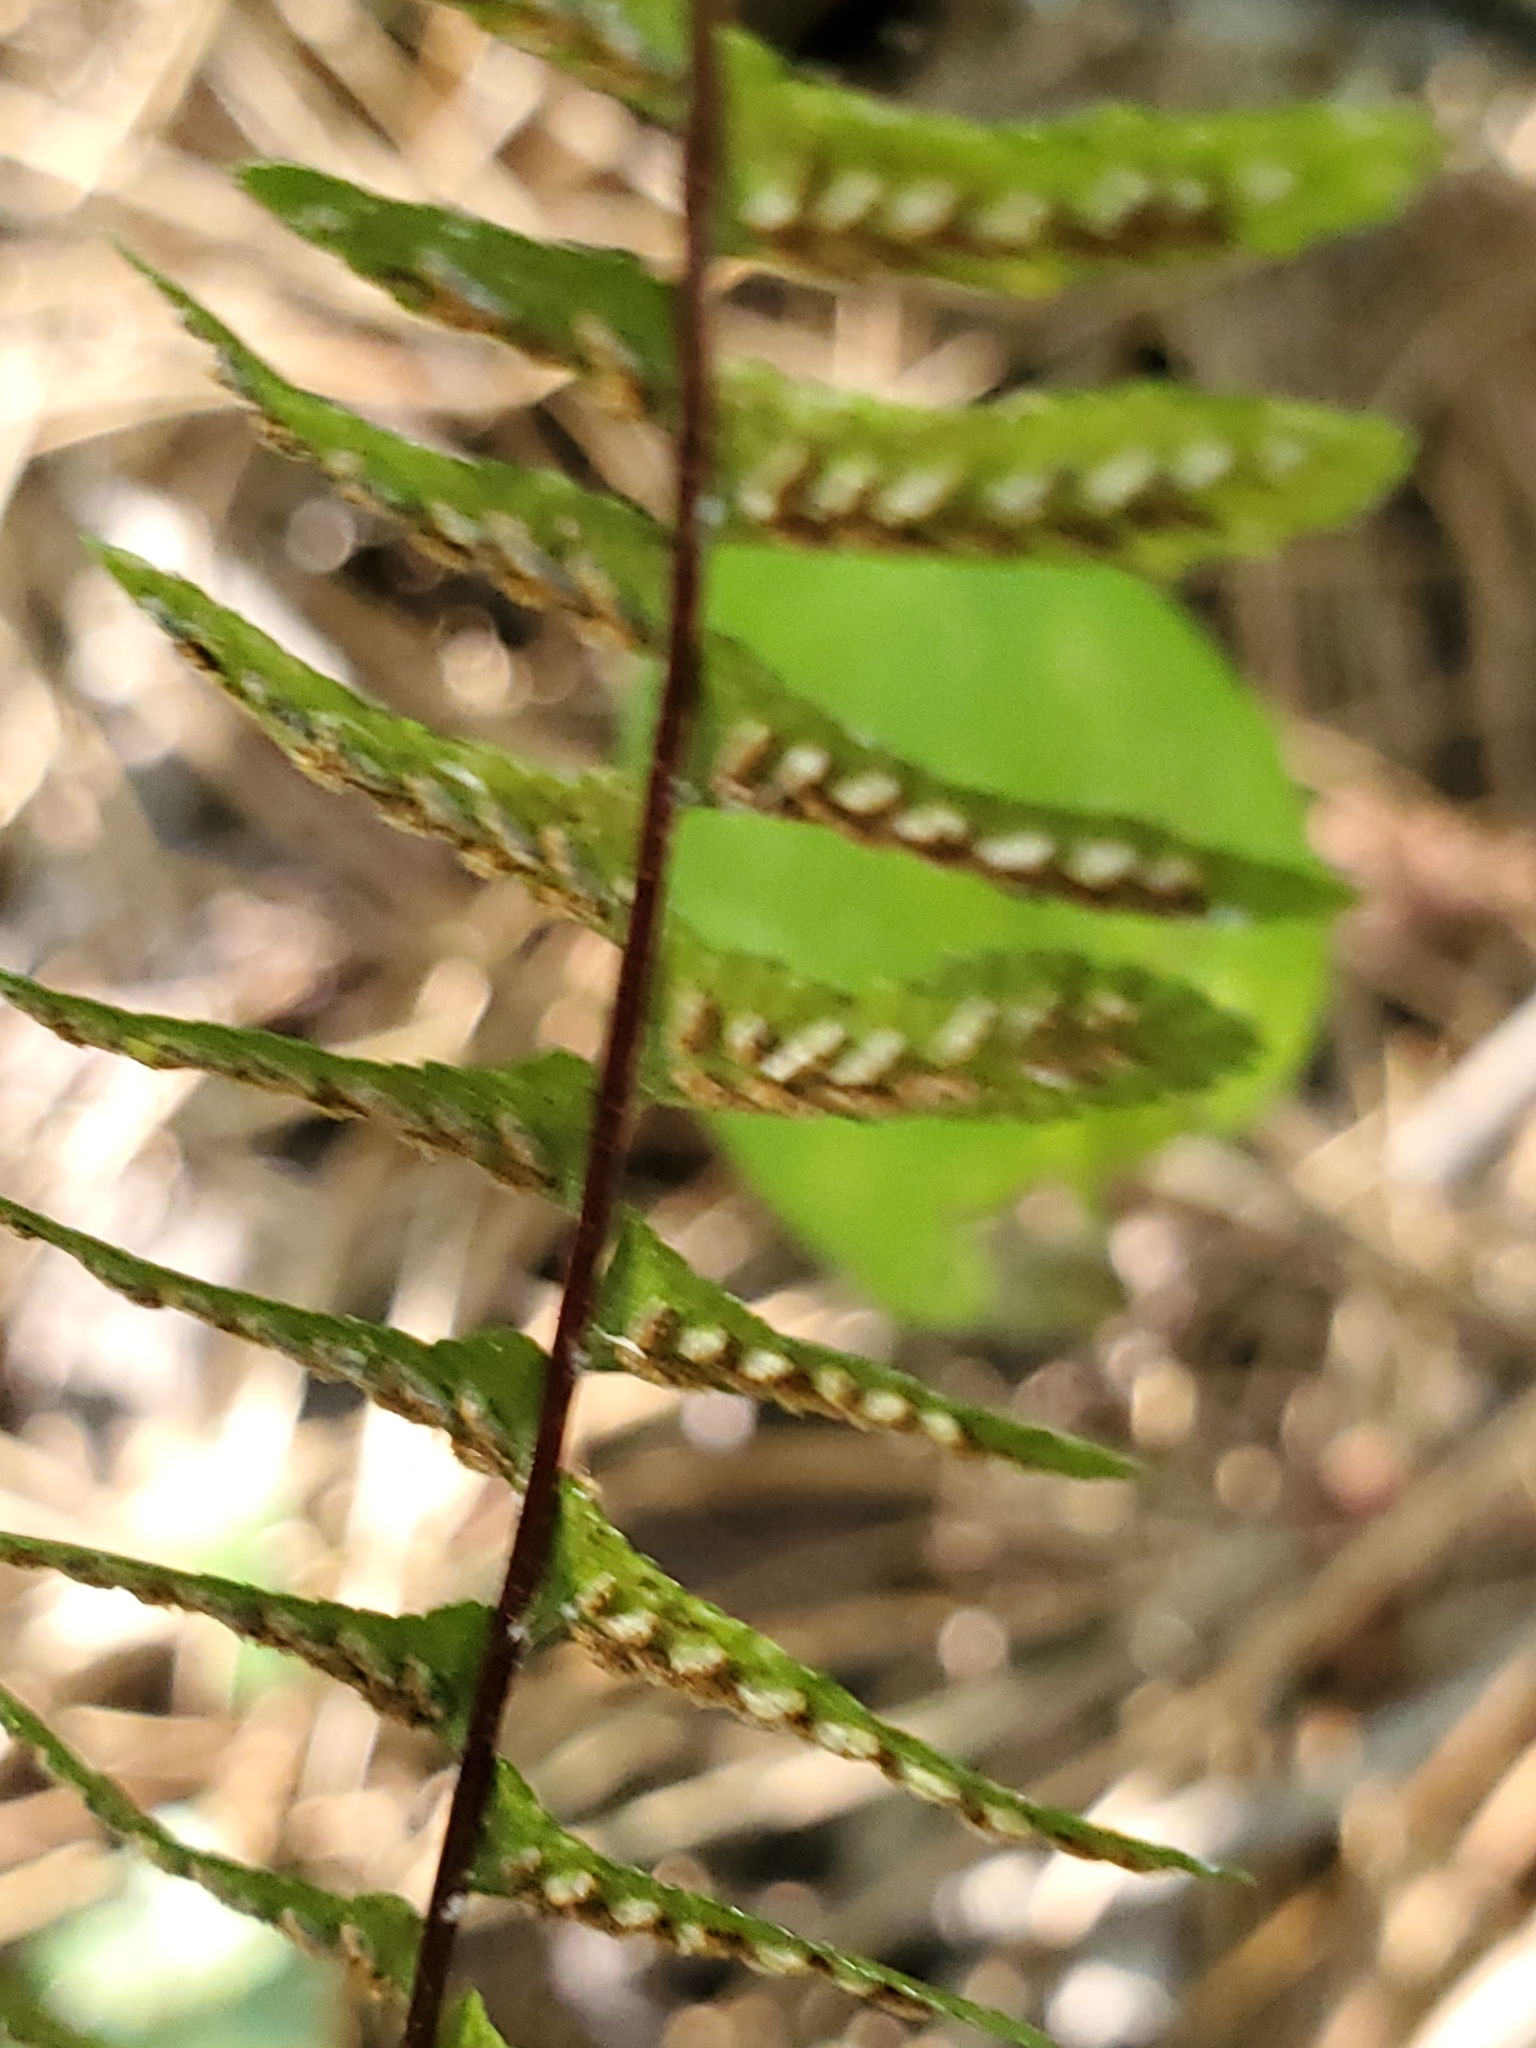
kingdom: Plantae
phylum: Tracheophyta
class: Polypodiopsida
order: Polypodiales
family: Aspleniaceae
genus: Asplenium
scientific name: Asplenium platyneuron
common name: Ebony spleenwort
